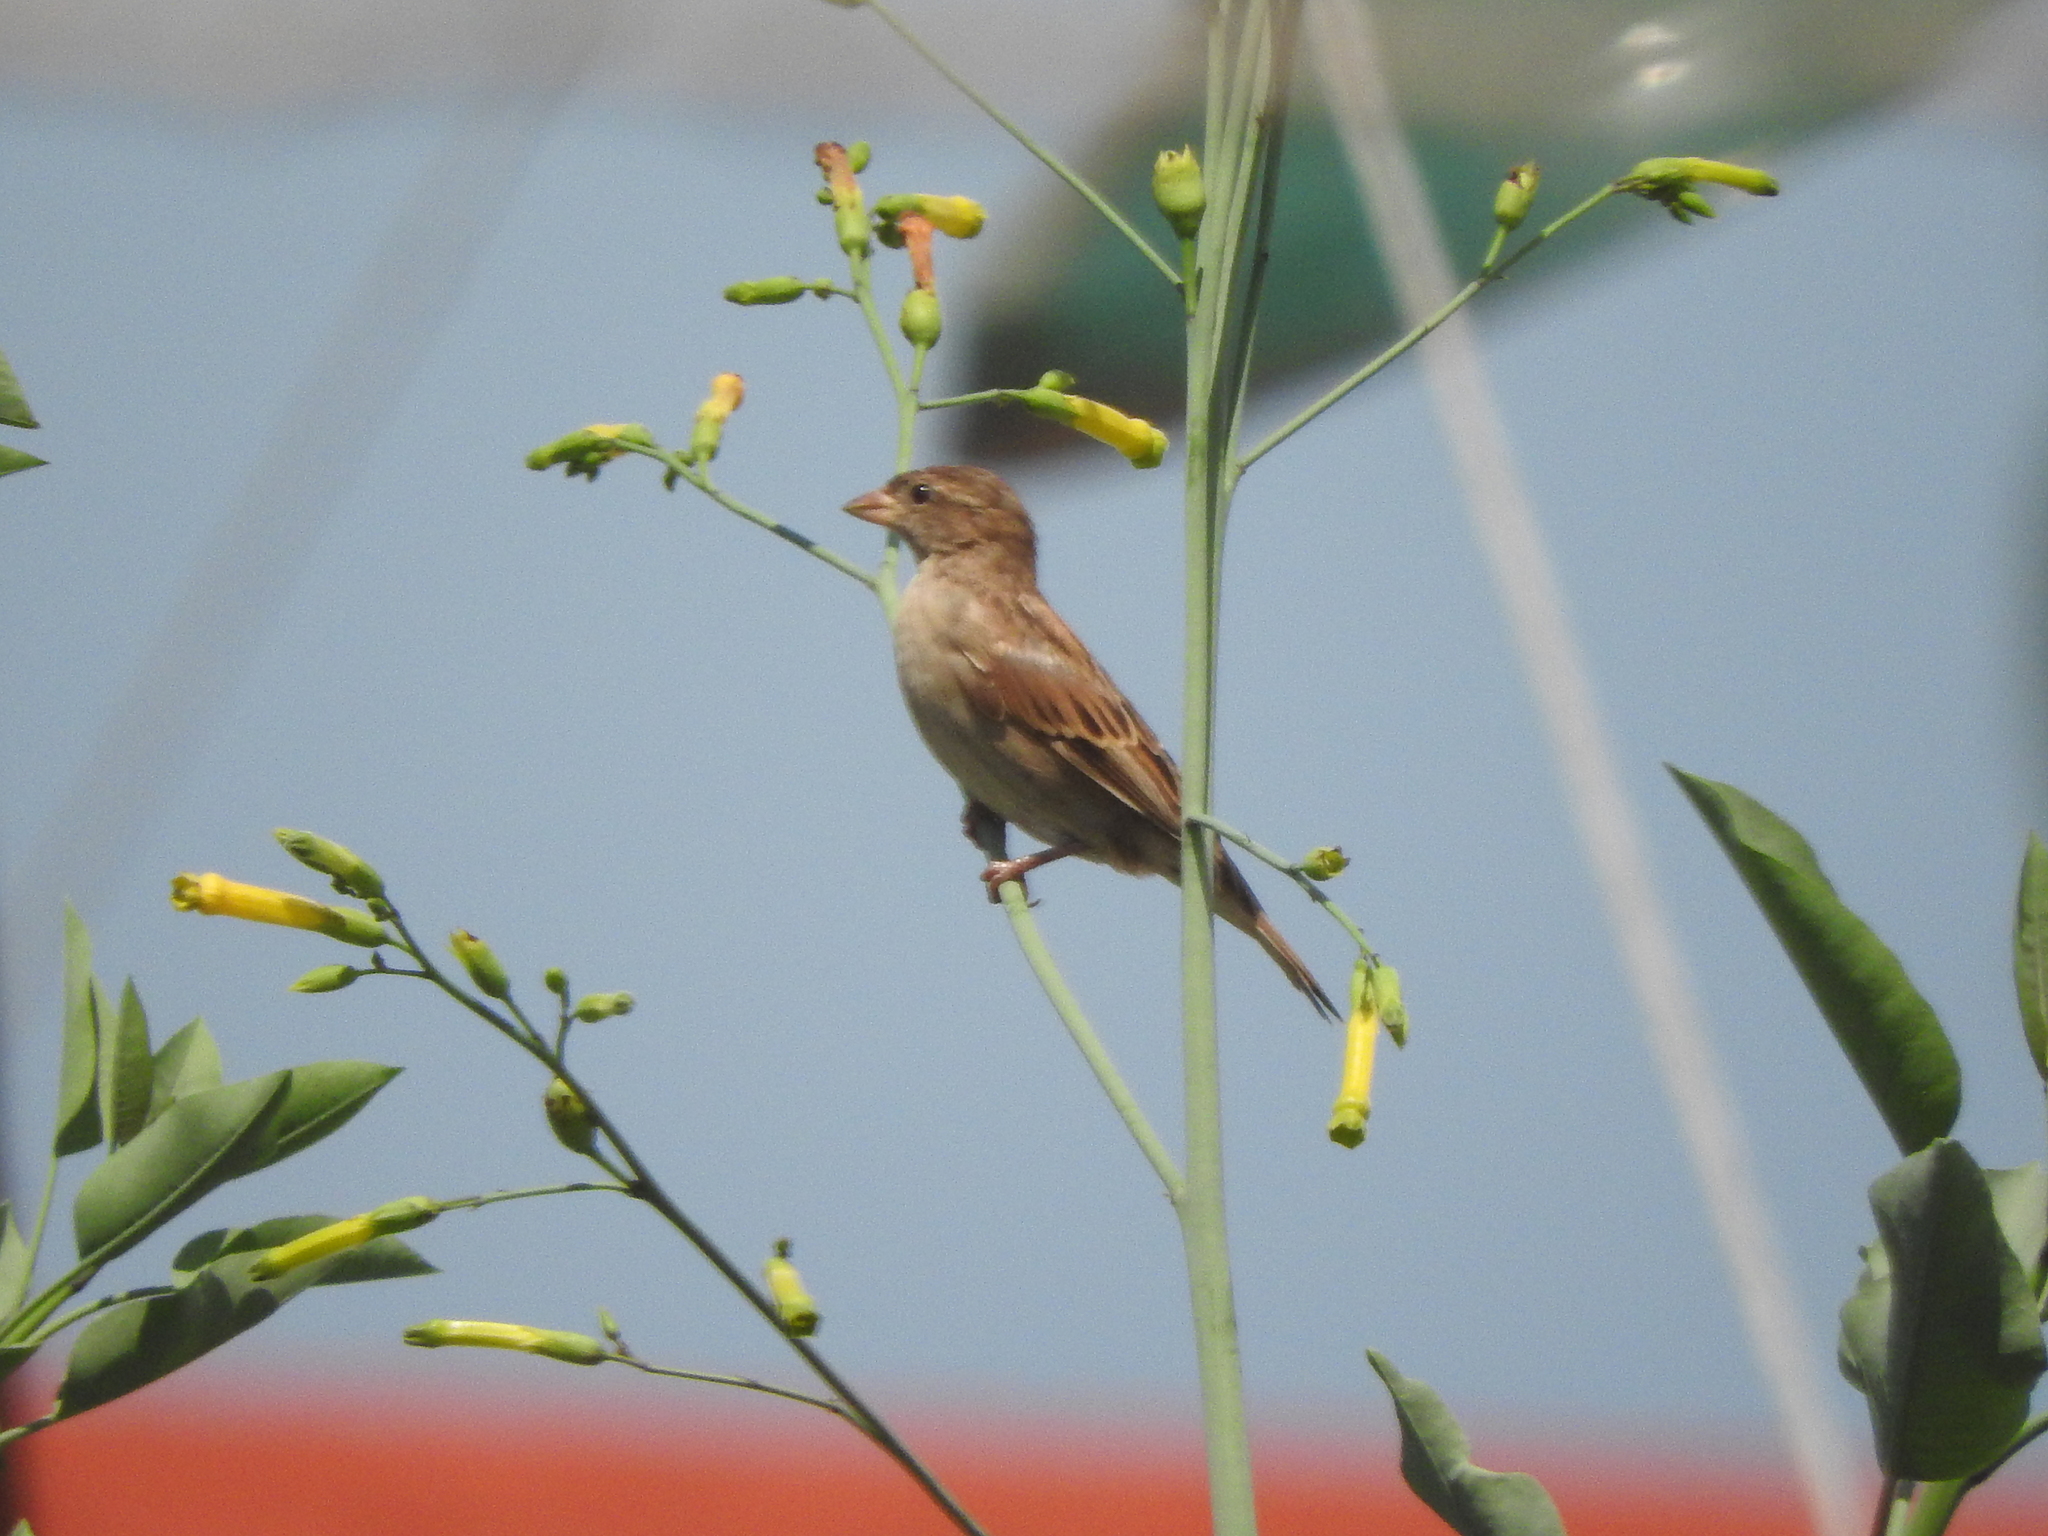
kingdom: Animalia
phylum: Chordata
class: Aves
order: Passeriformes
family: Passeridae
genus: Passer
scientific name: Passer domesticus
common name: House sparrow
